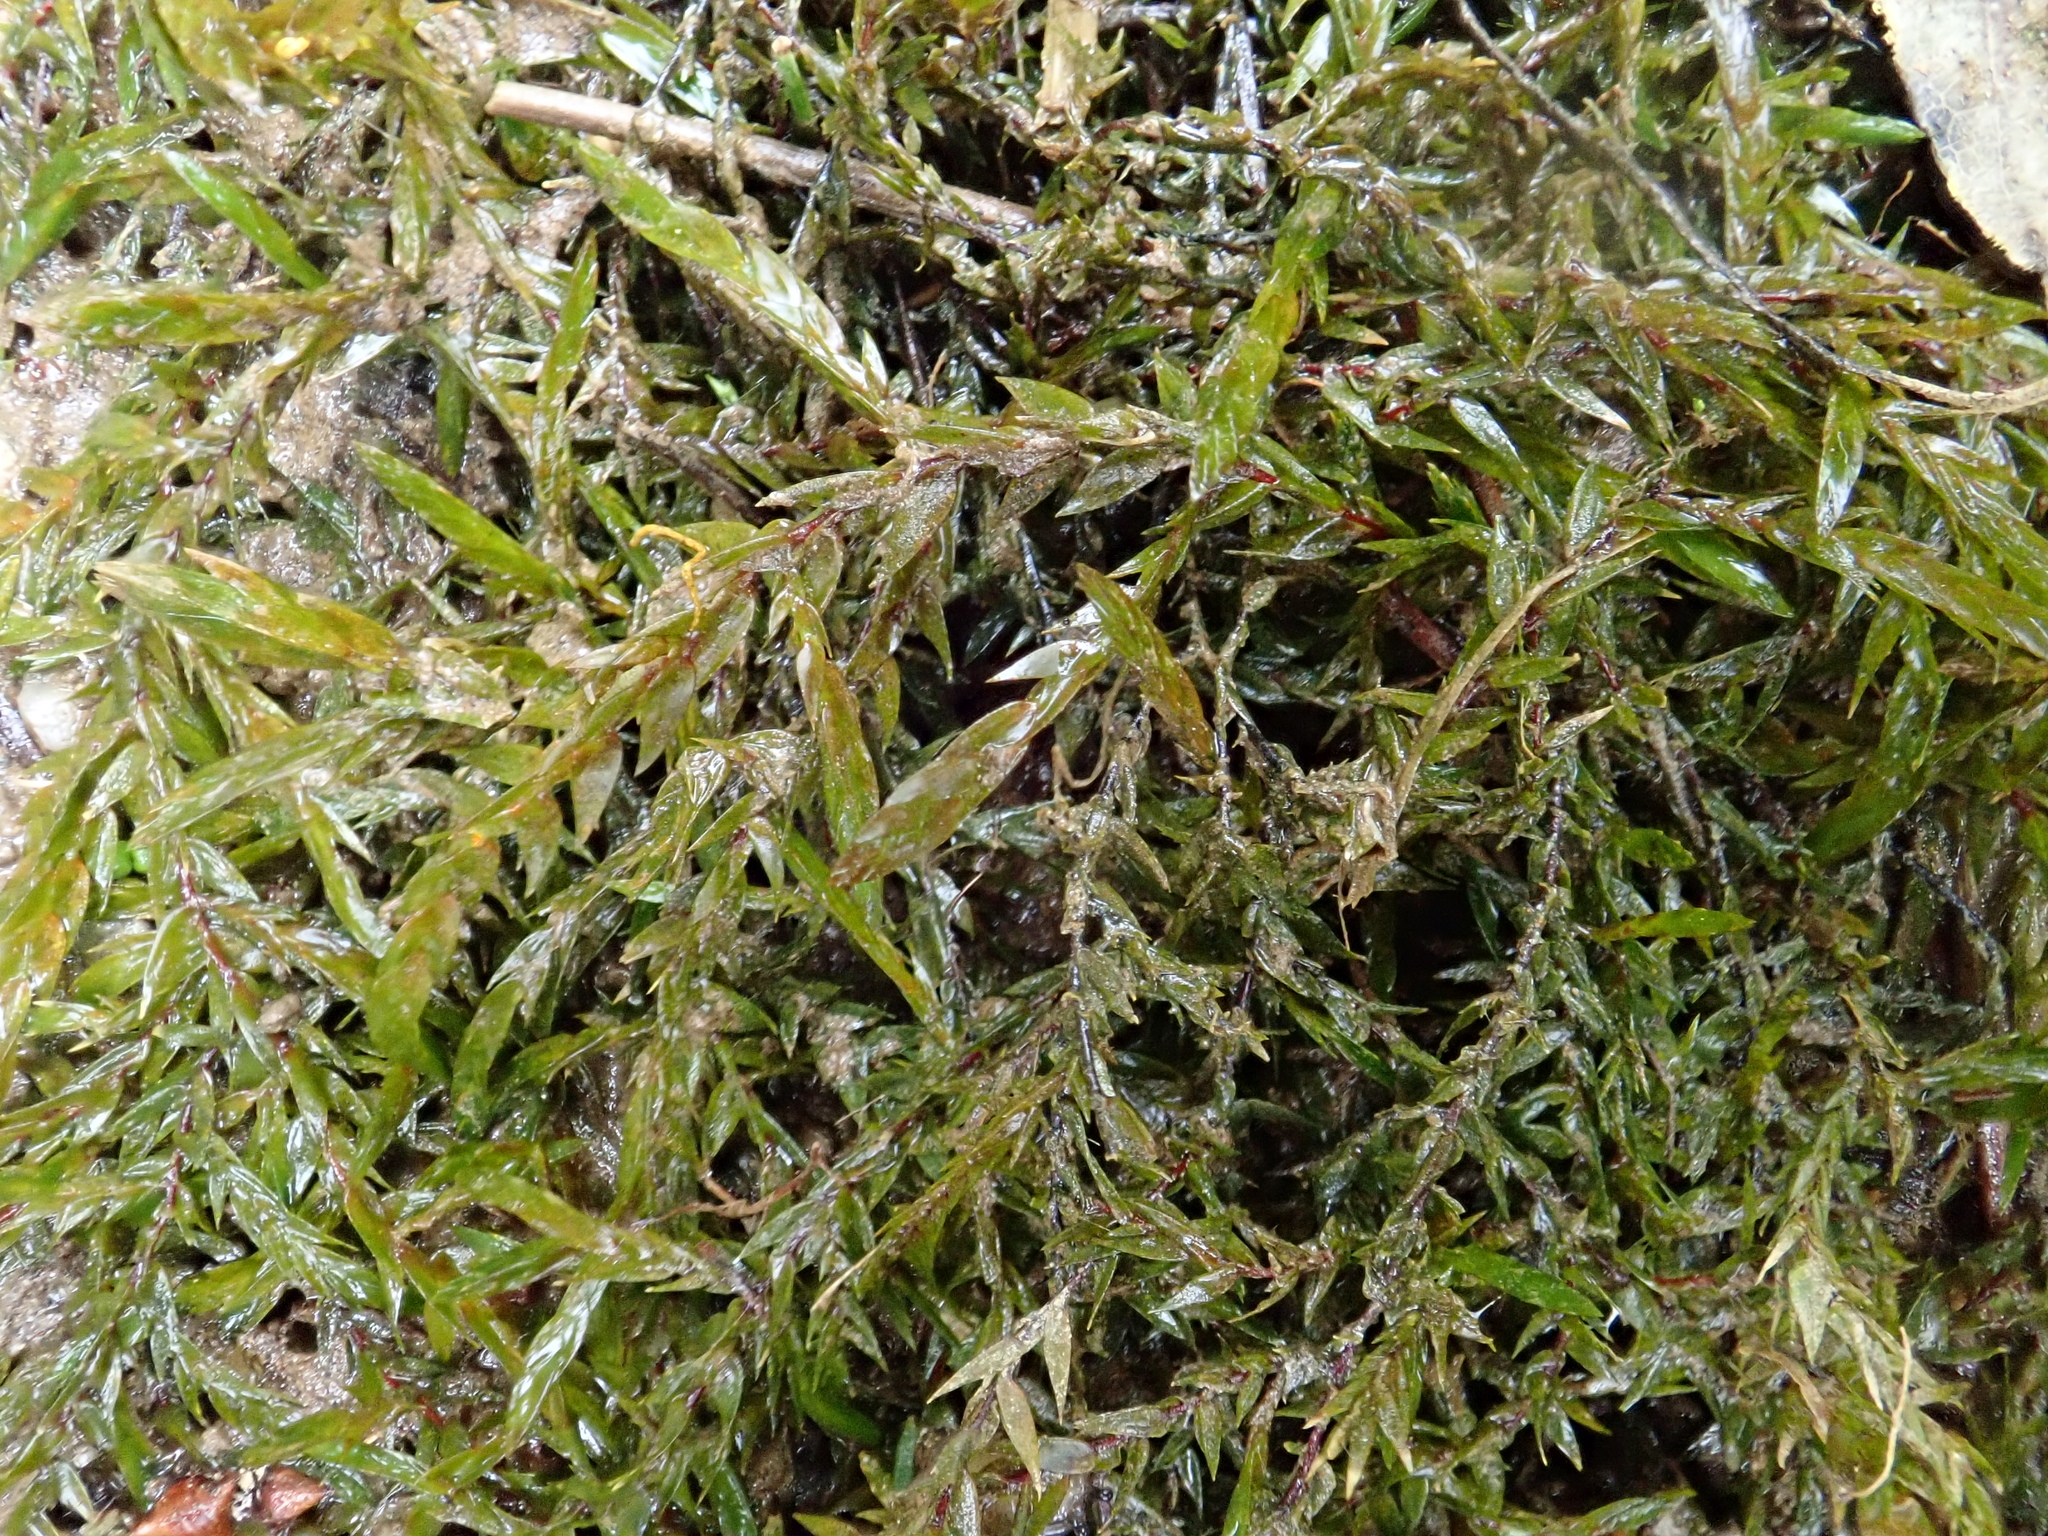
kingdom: Plantae
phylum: Bryophyta
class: Bryopsida
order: Hypnales
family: Fontinalaceae
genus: Fontinalis
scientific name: Fontinalis antipyretica
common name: Greater water-moss
